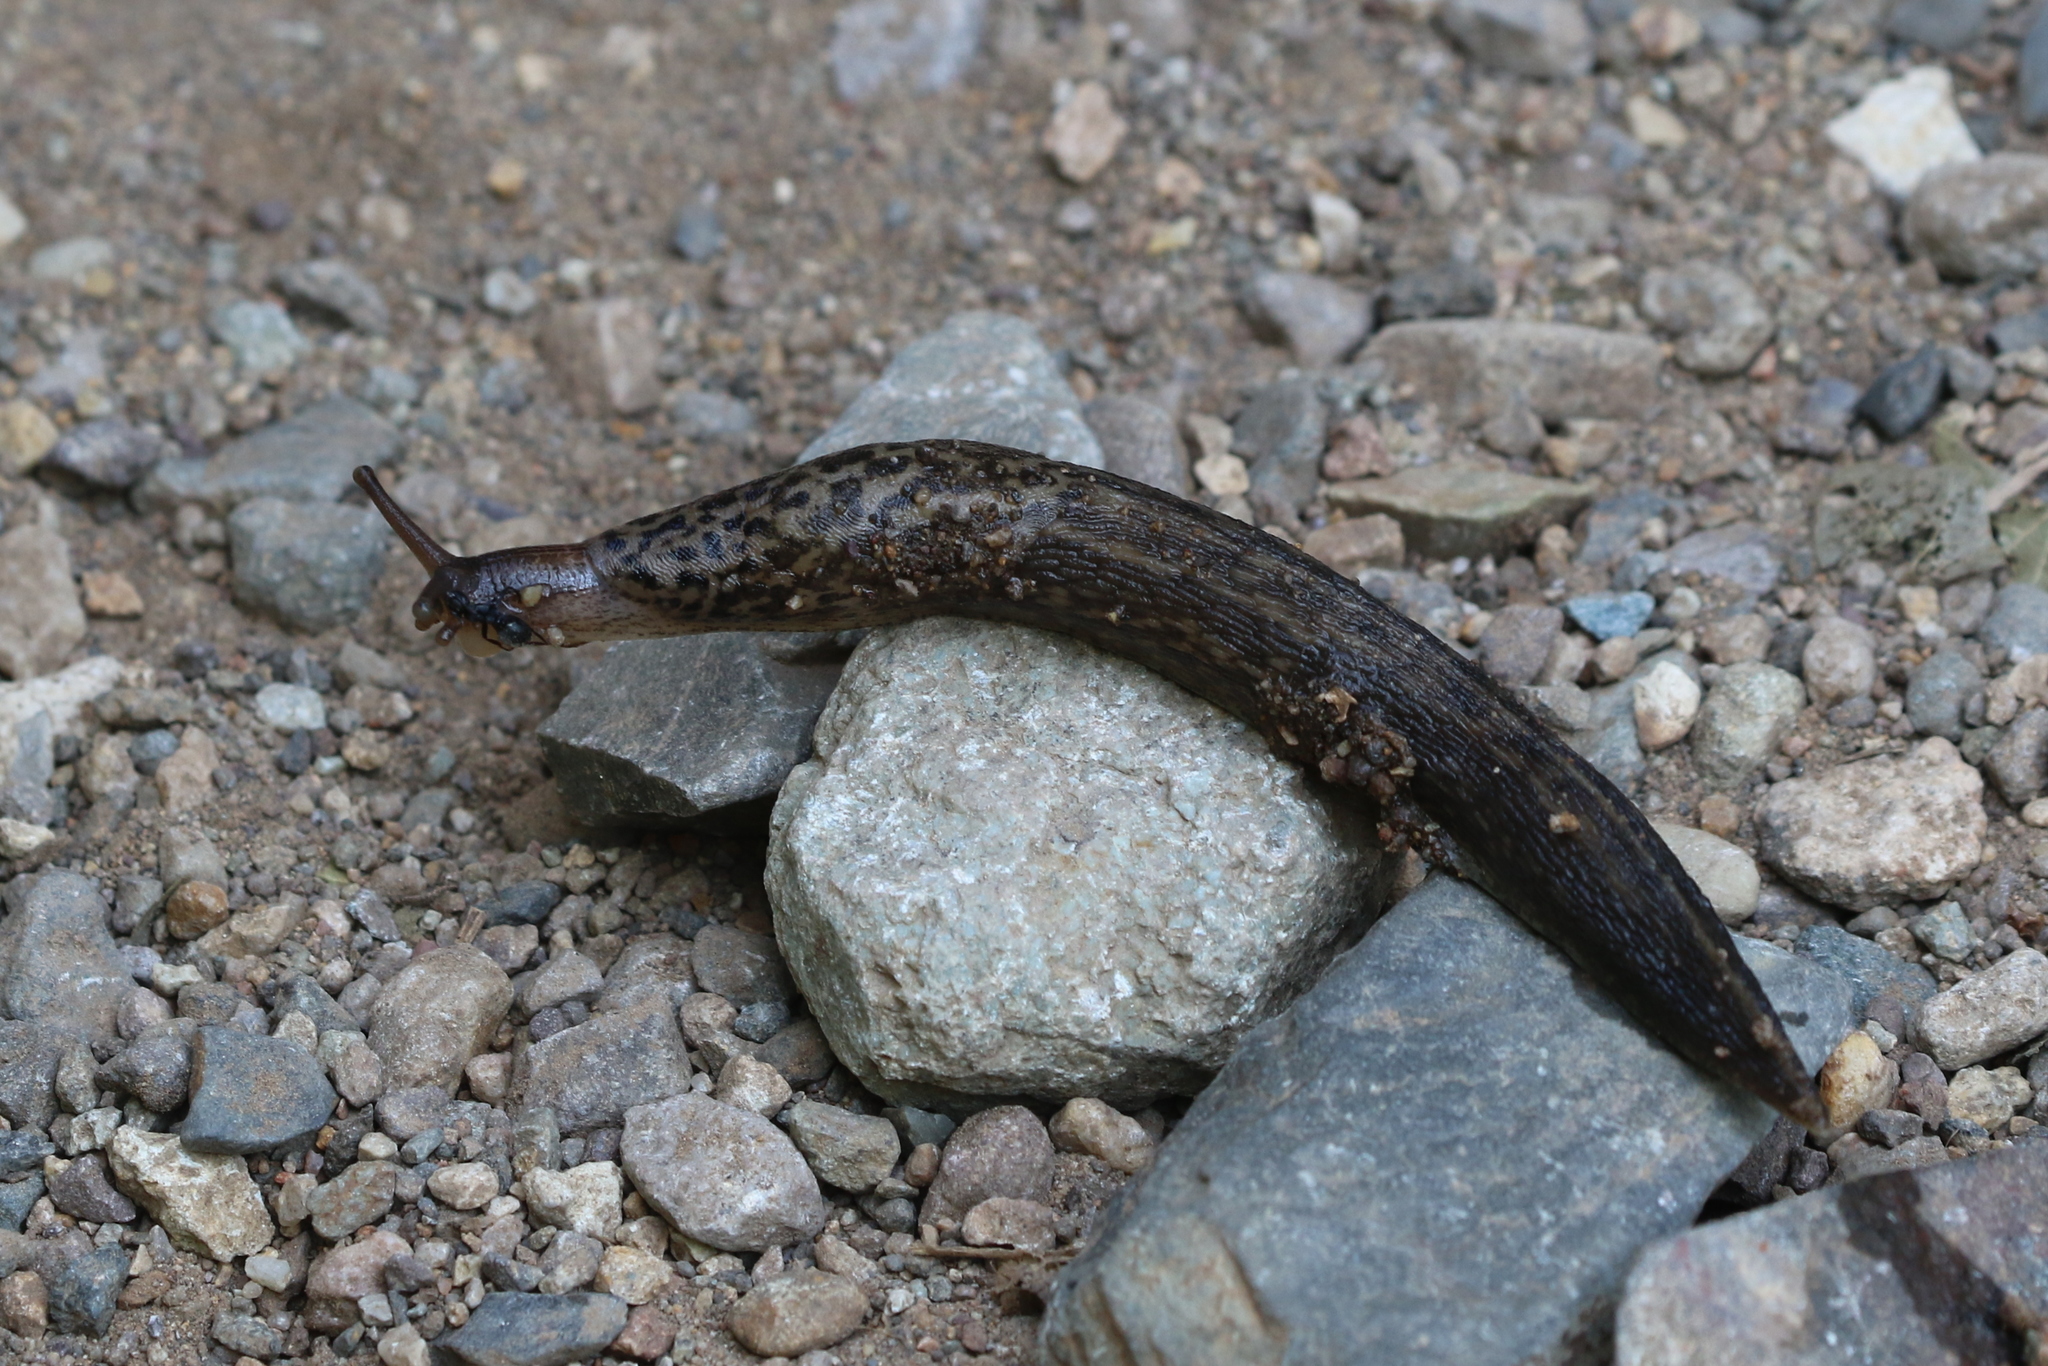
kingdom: Animalia
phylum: Mollusca
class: Gastropoda
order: Stylommatophora
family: Limacidae
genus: Limax
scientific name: Limax maximus
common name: Great grey slug
